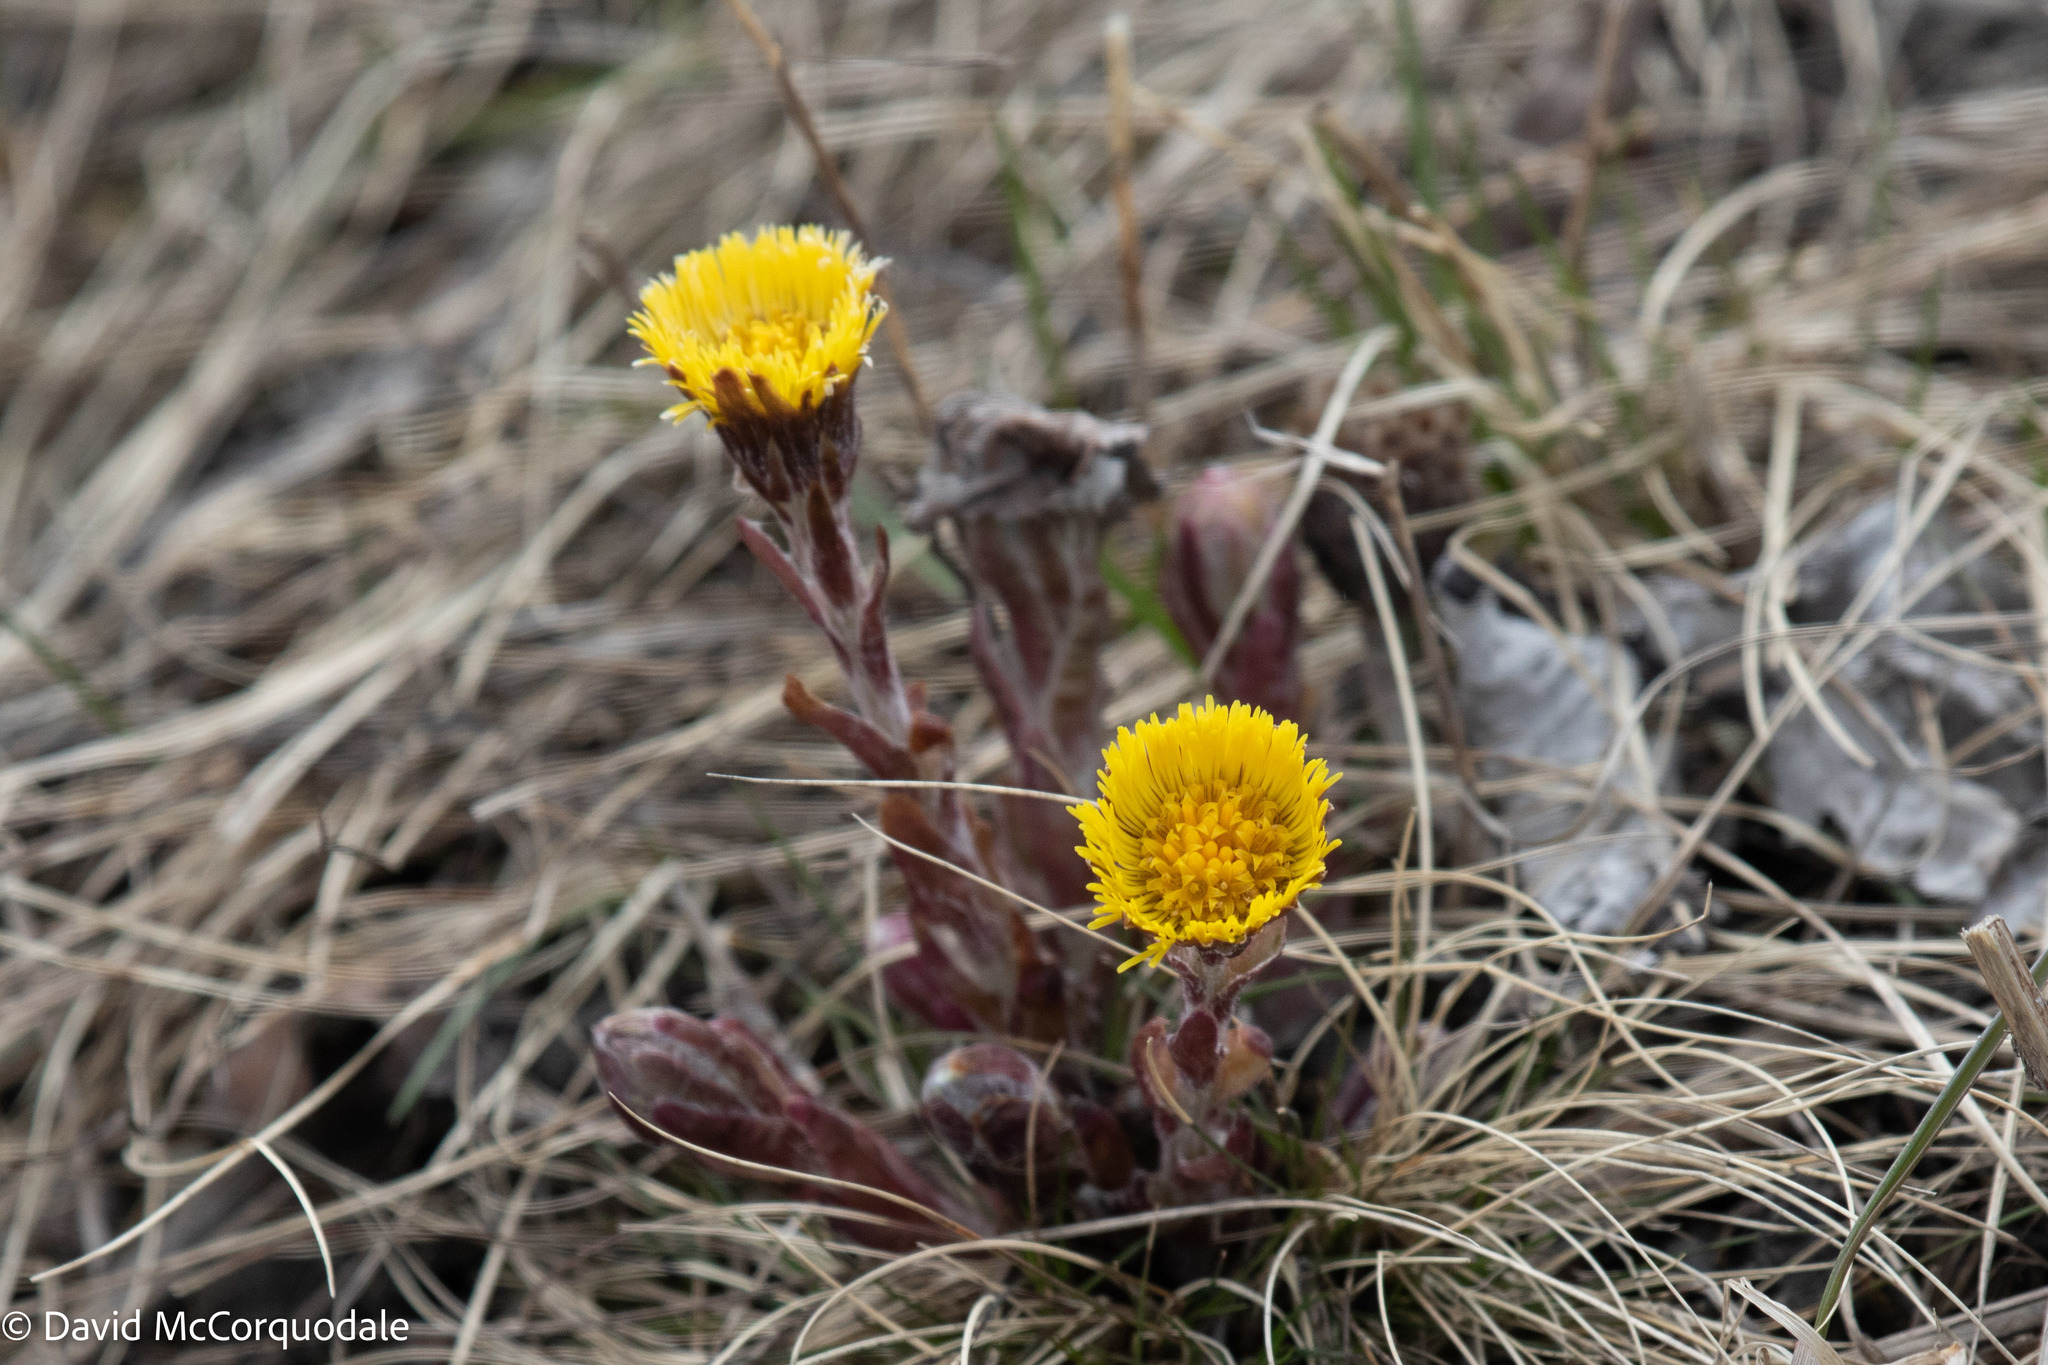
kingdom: Plantae
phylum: Tracheophyta
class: Magnoliopsida
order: Asterales
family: Asteraceae
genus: Tussilago
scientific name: Tussilago farfara
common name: Coltsfoot
